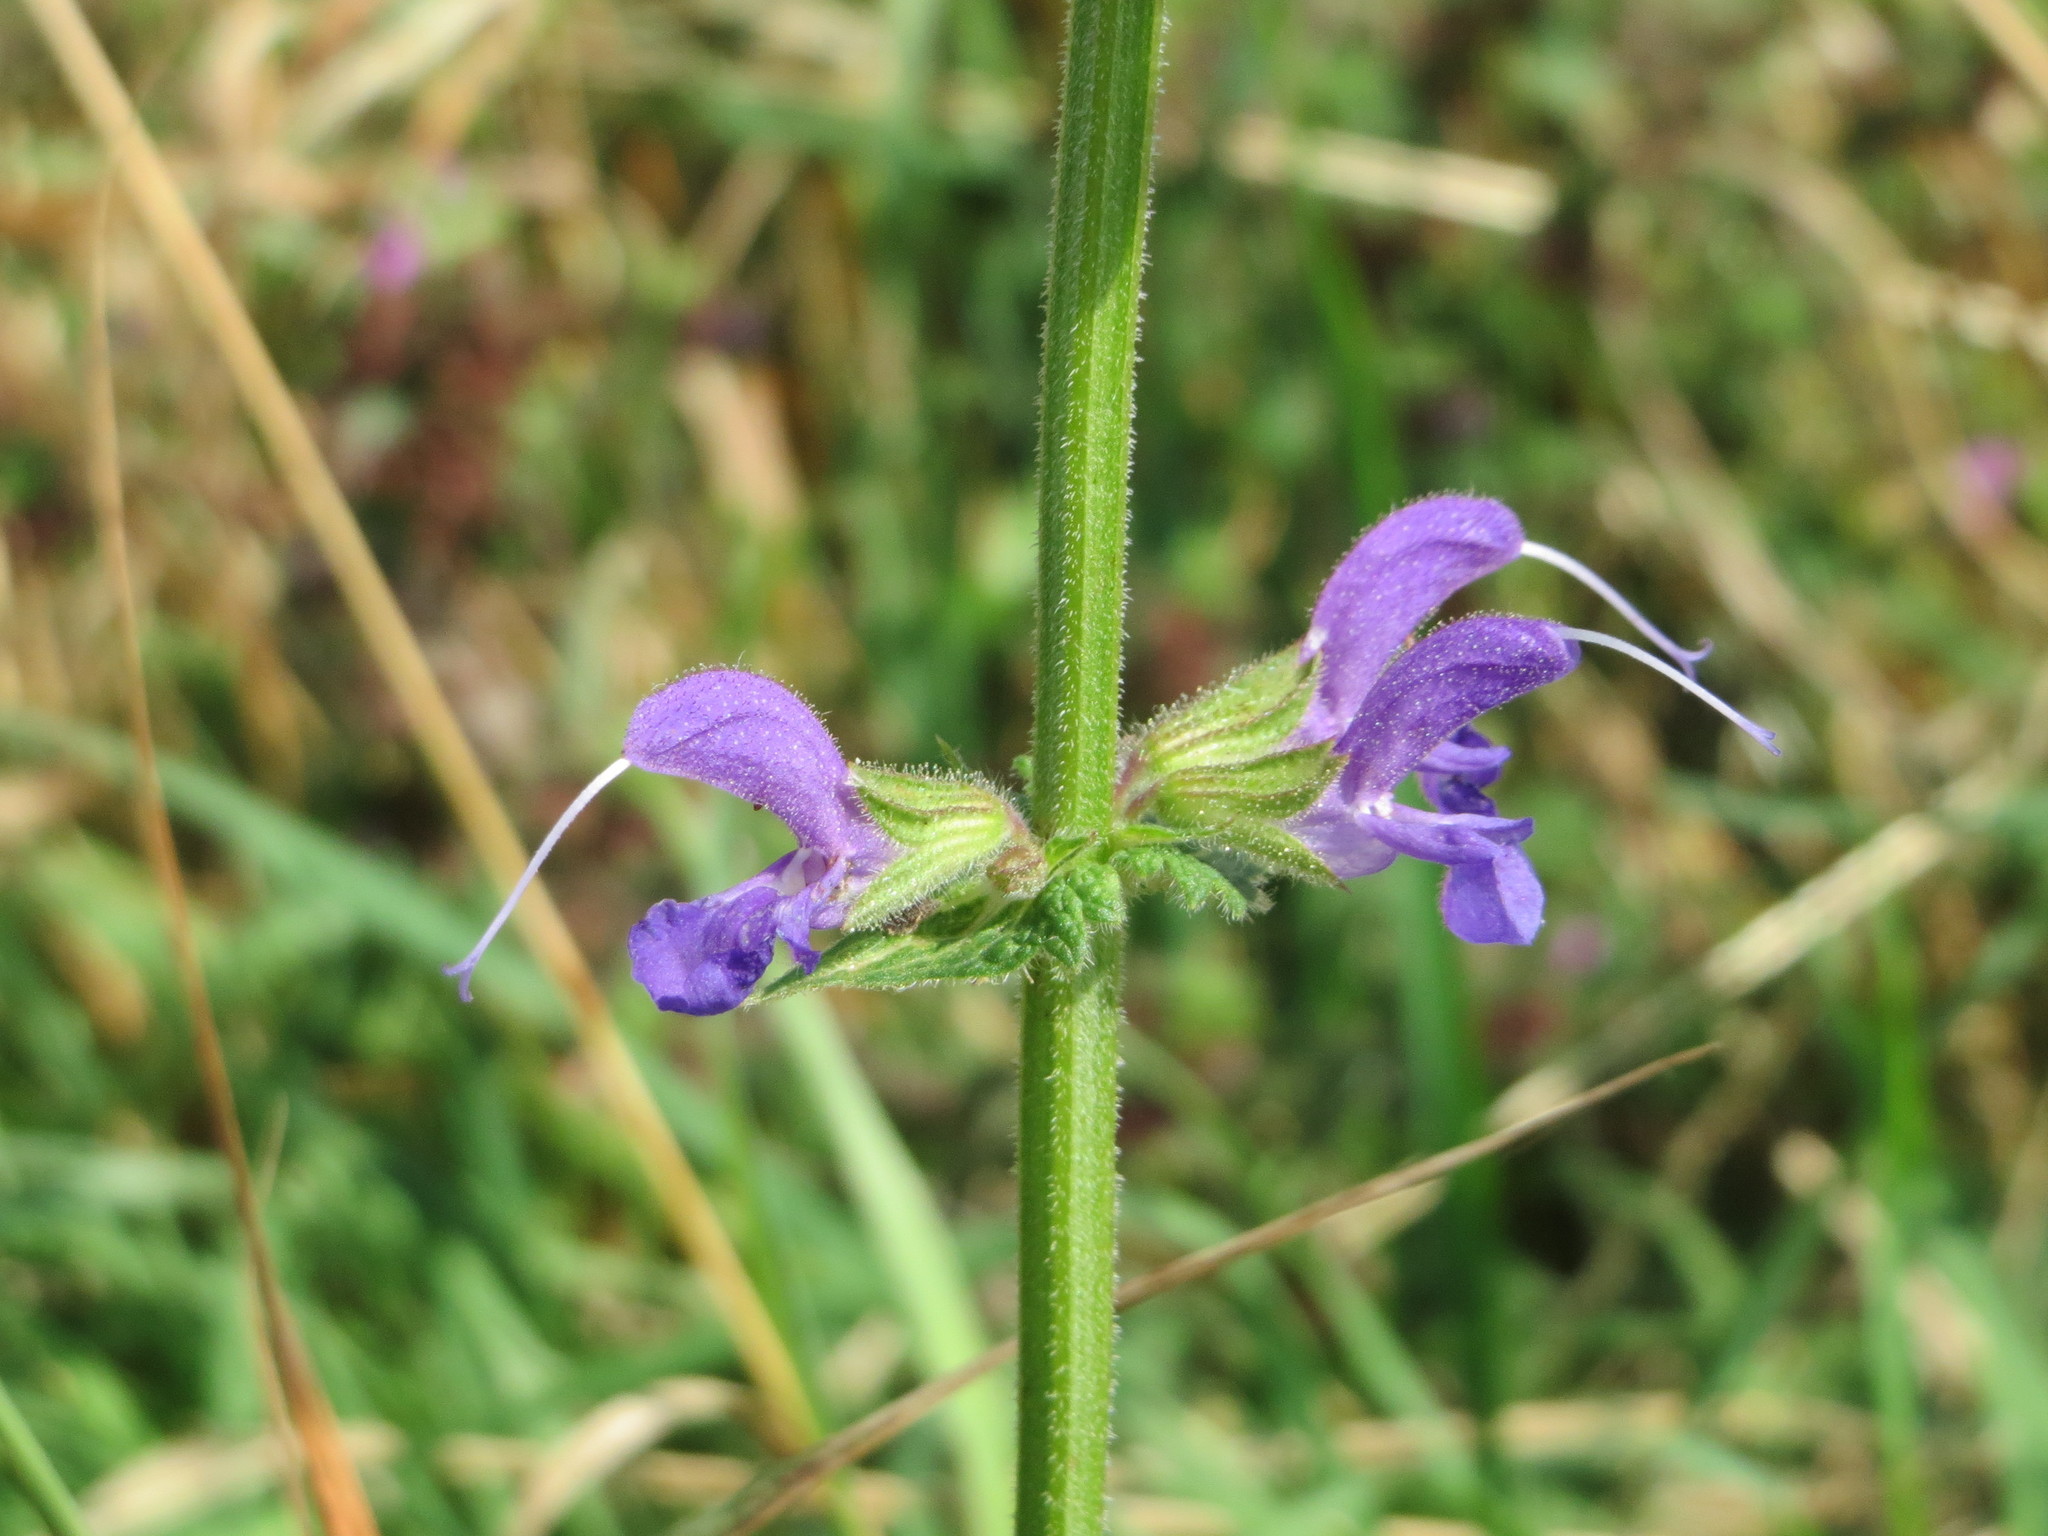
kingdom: Plantae
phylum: Tracheophyta
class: Magnoliopsida
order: Lamiales
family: Lamiaceae
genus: Salvia
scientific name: Salvia pratensis
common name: Meadow sage
